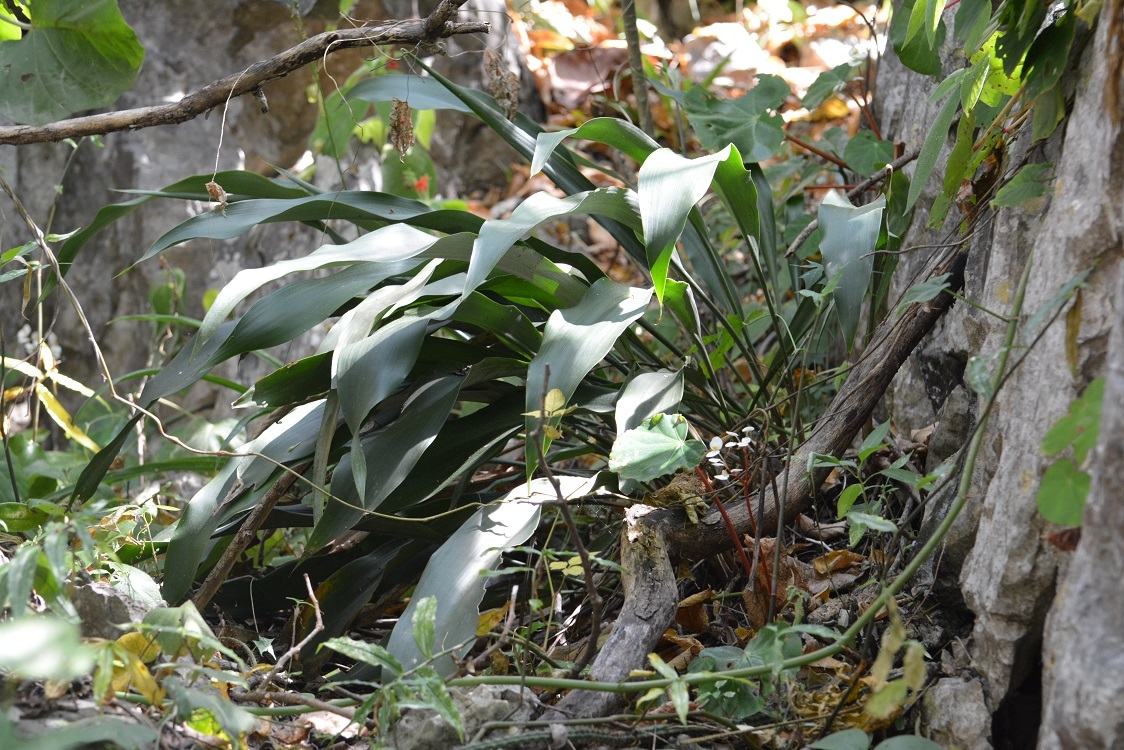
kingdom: Plantae
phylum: Tracheophyta
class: Liliopsida
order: Poales
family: Bromeliaceae
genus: Pitcairnia
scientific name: Pitcairnia chiapensis
